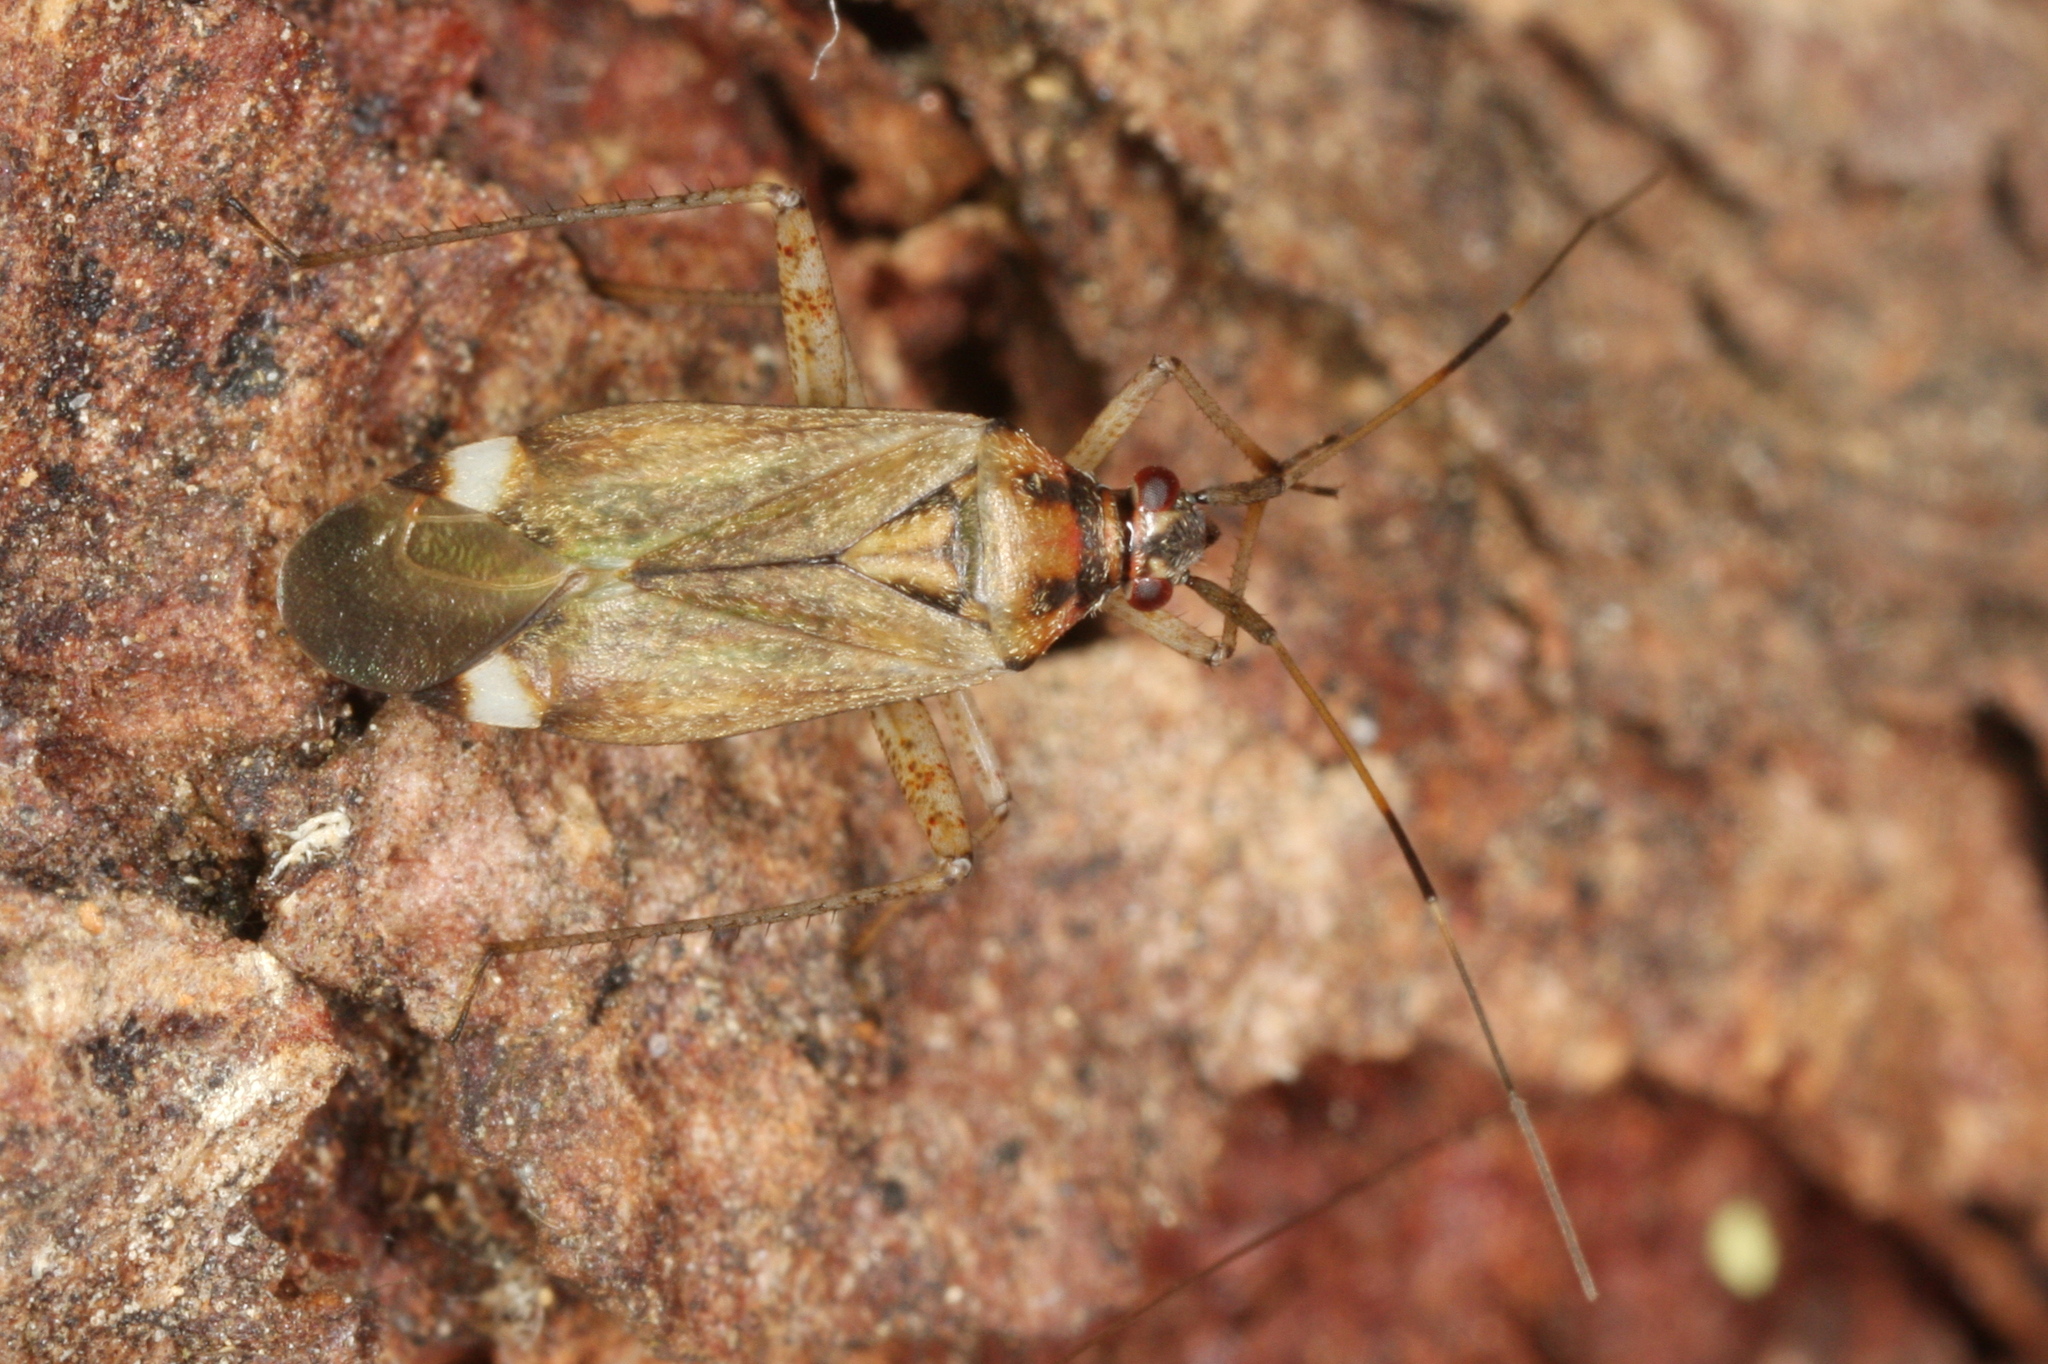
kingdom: Animalia
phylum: Arthropoda
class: Insecta
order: Hemiptera
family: Miridae
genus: Closterotomus
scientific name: Closterotomus fulvomaculatus
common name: Spotted plant bug
